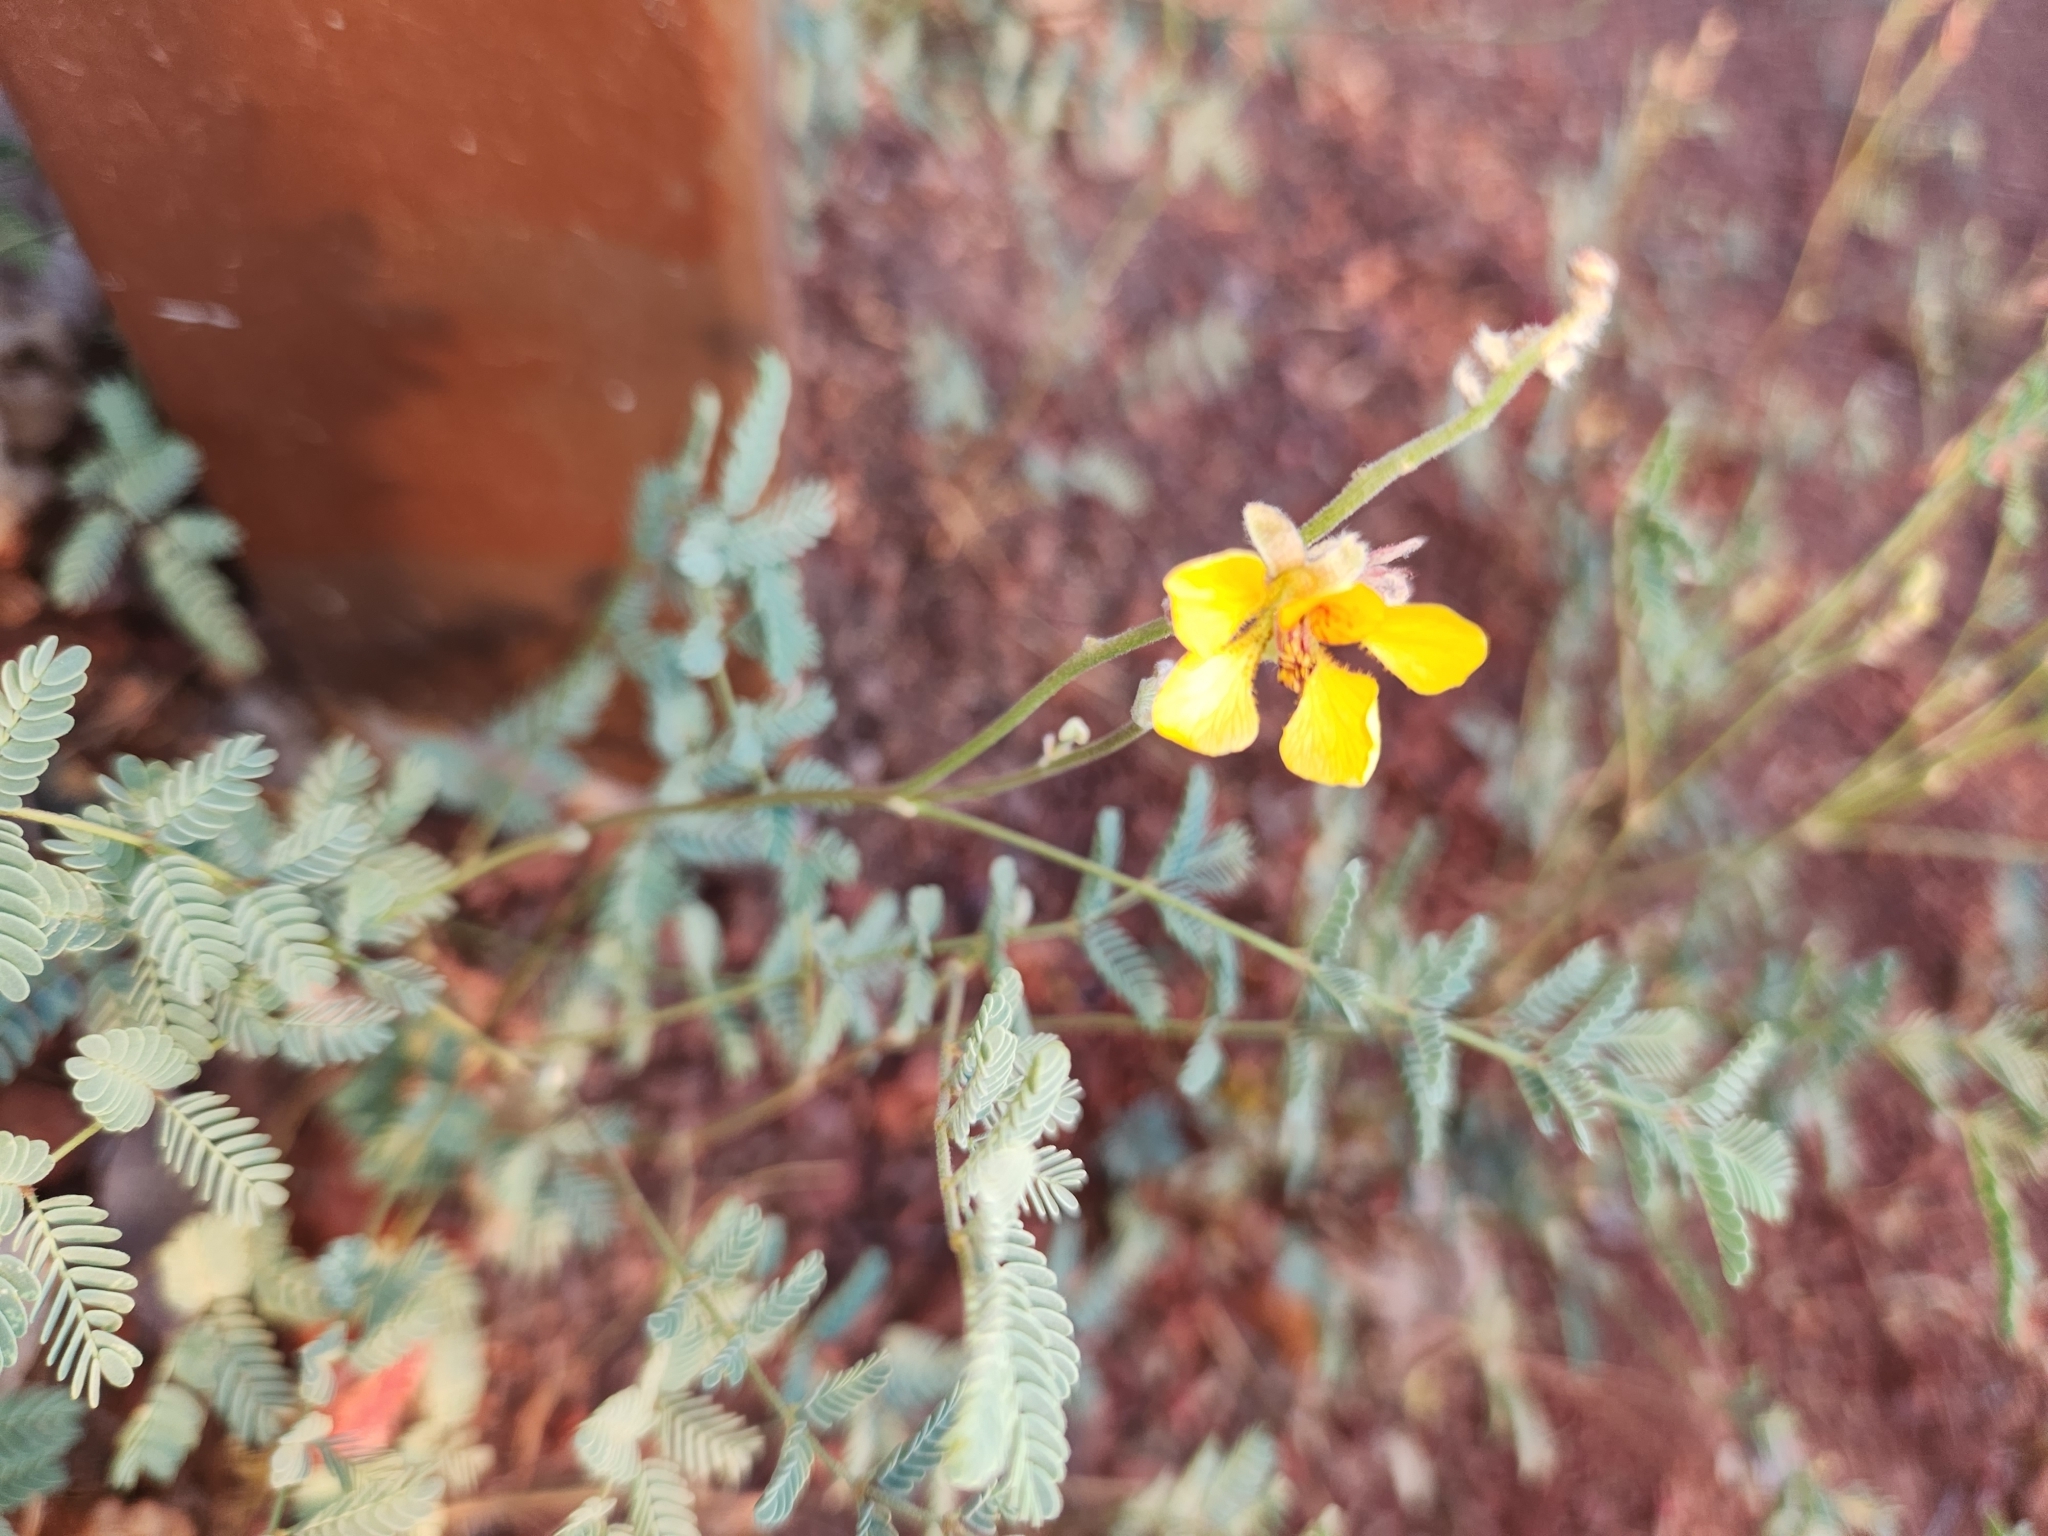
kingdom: Plantae
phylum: Tracheophyta
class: Magnoliopsida
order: Fabales
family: Fabaceae
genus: Hoffmannseggia
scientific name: Hoffmannseggia glauca
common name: Pignut
